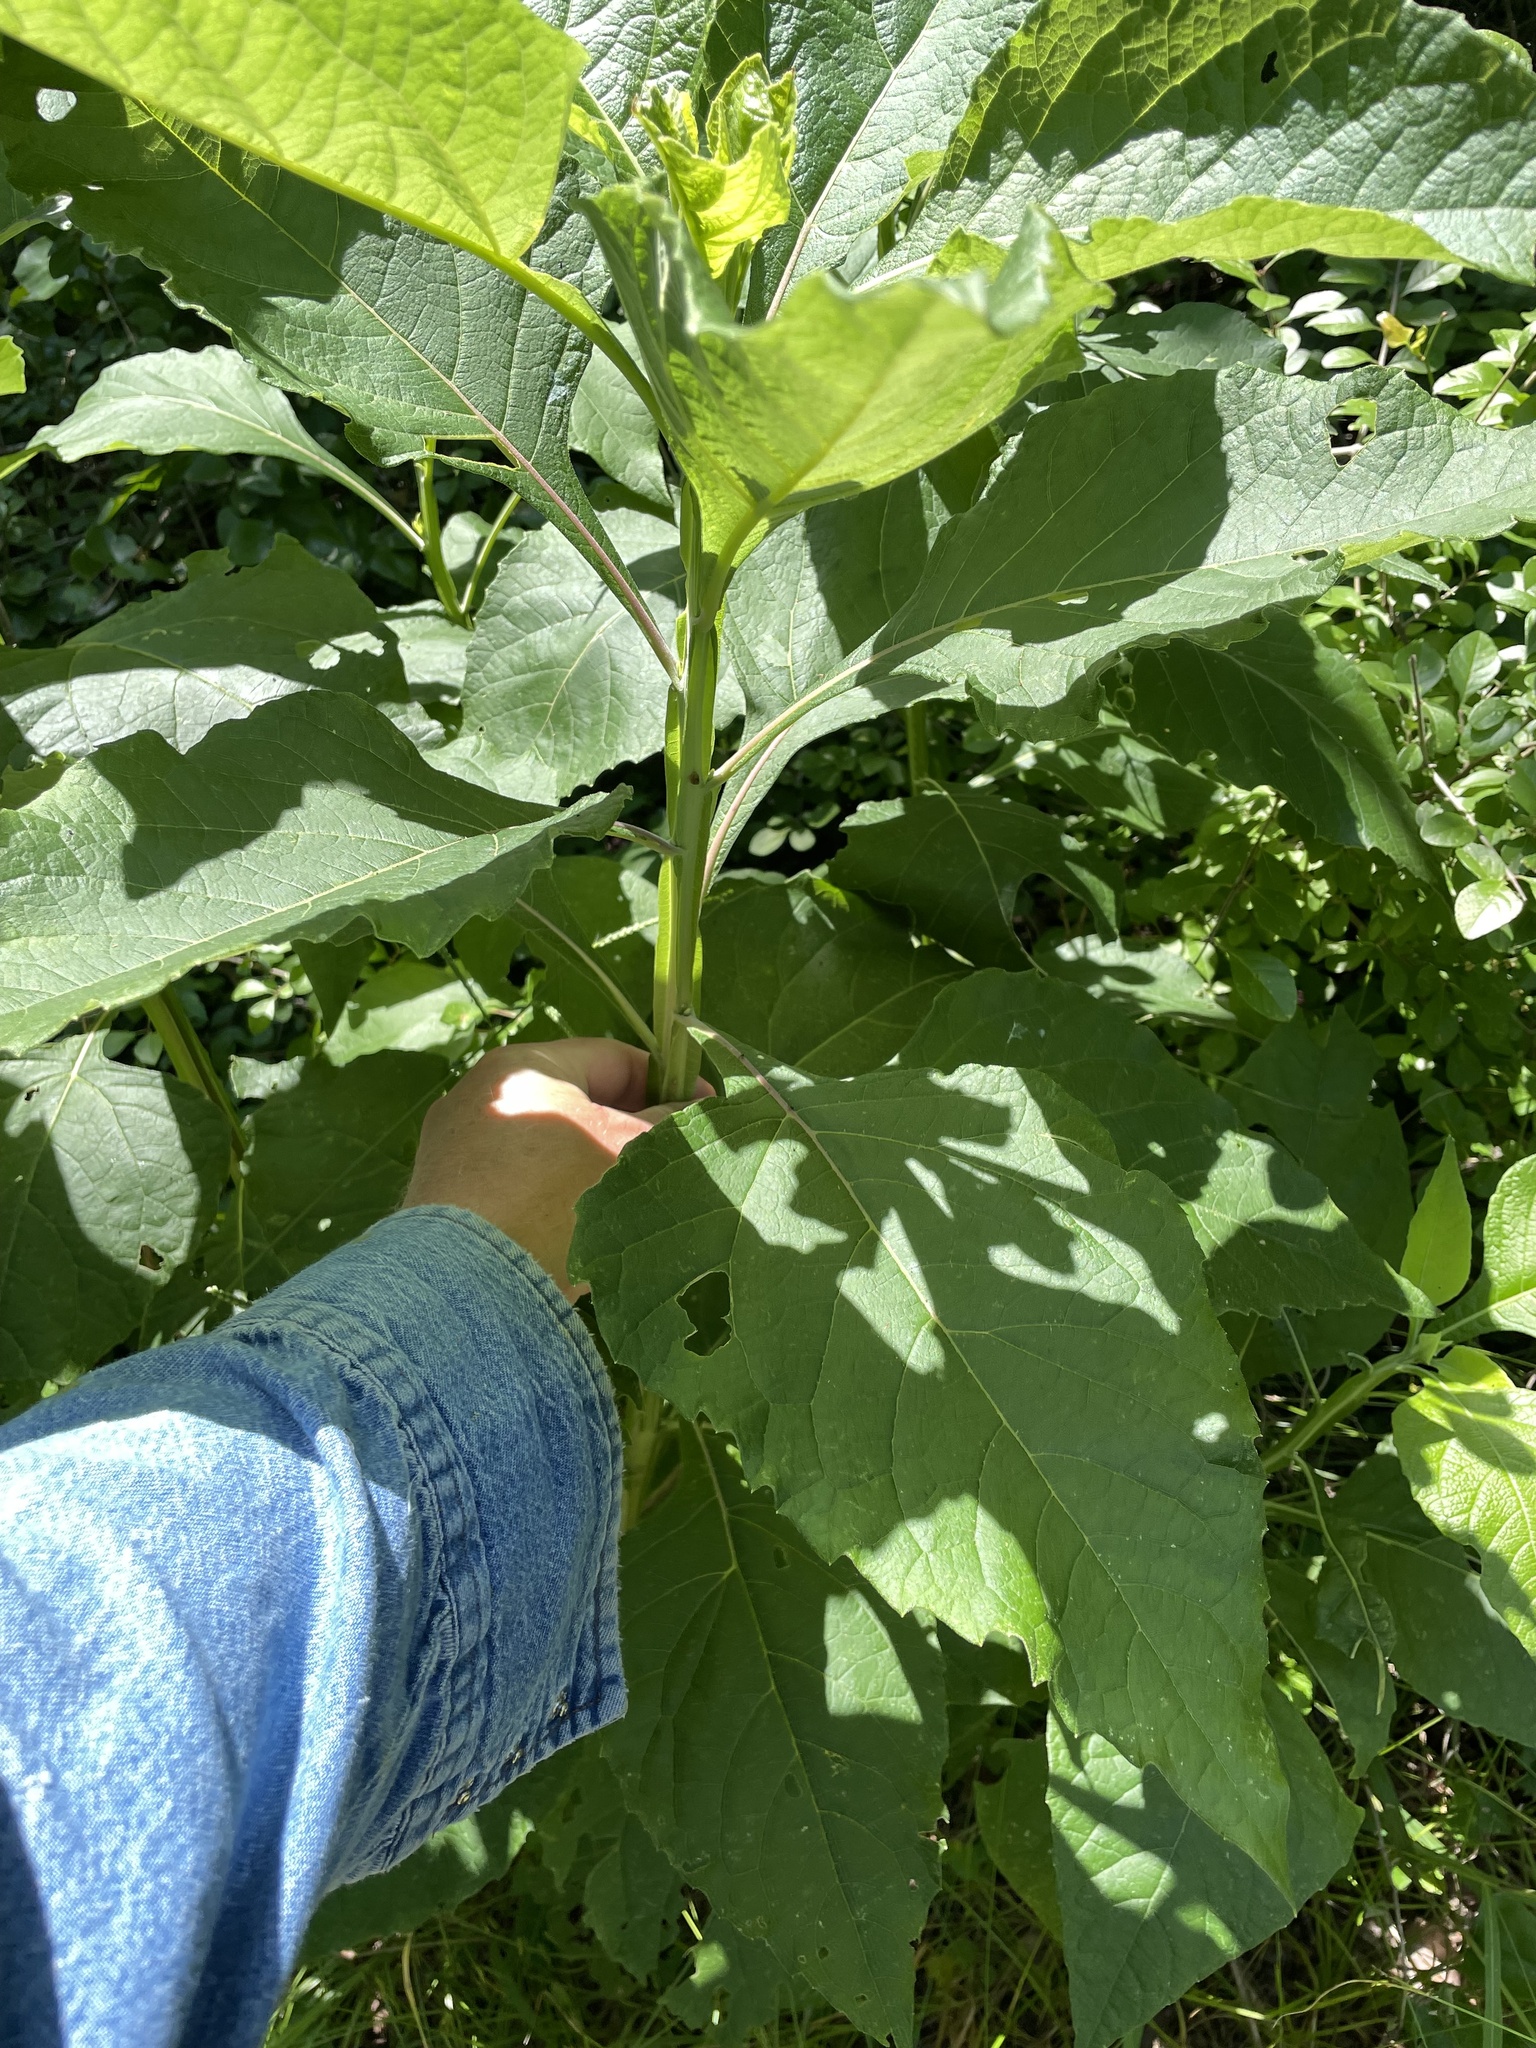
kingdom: Plantae
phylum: Tracheophyta
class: Magnoliopsida
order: Asterales
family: Asteraceae
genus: Verbesina
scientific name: Verbesina virginica
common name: Frostweed
